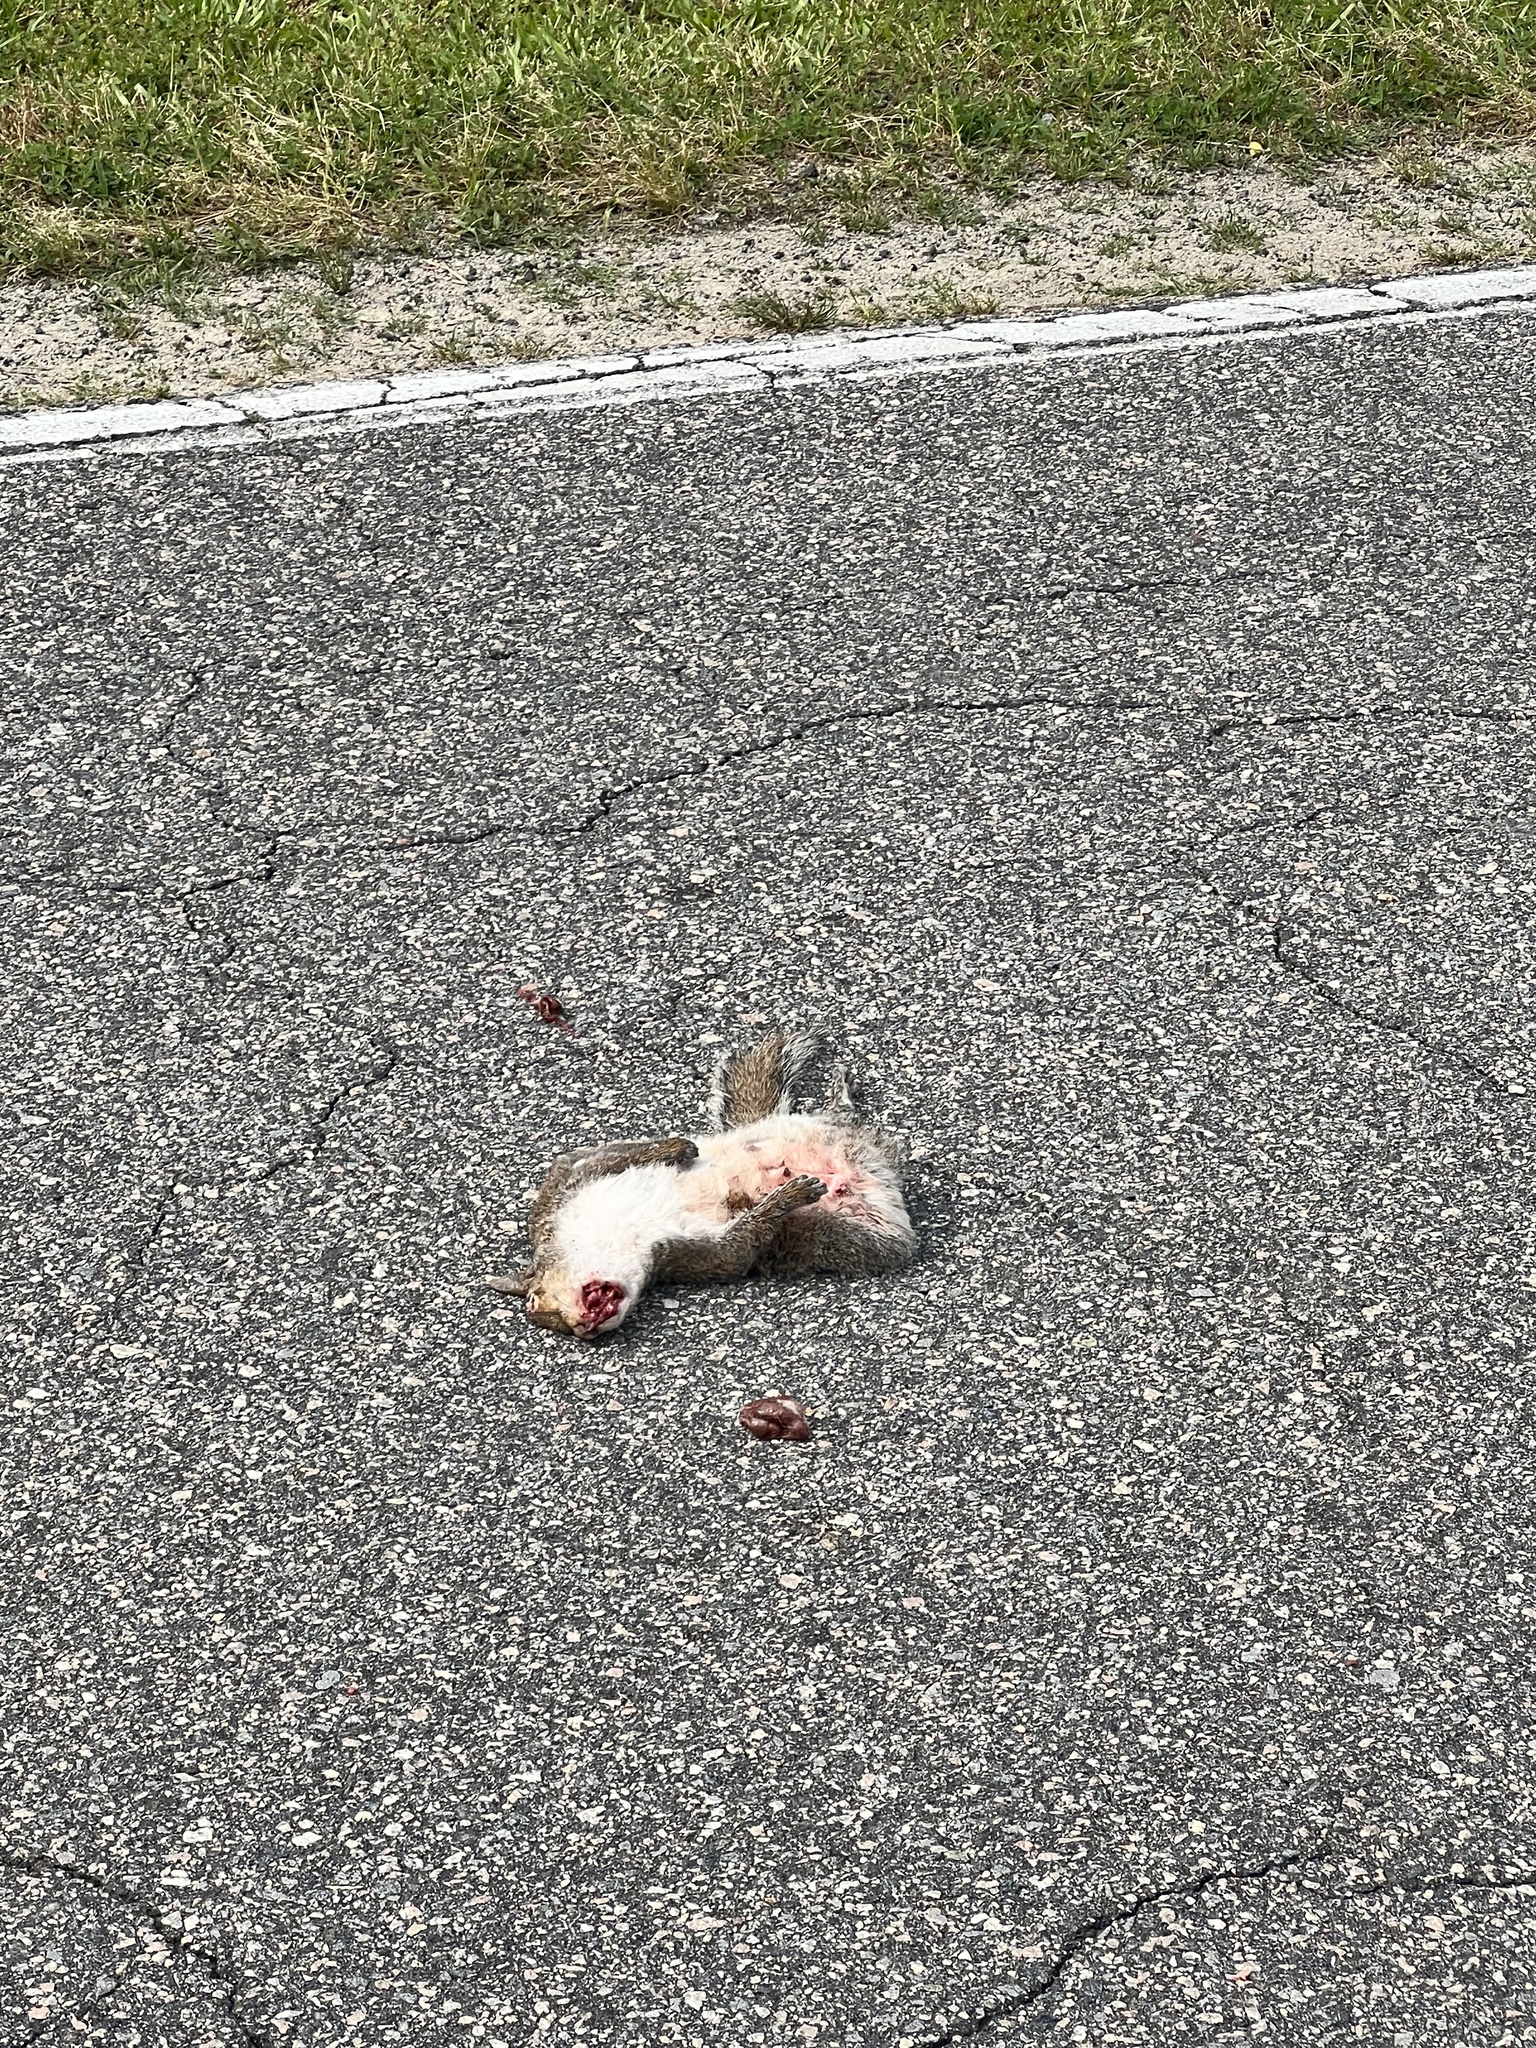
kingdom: Animalia
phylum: Chordata
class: Mammalia
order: Rodentia
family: Sciuridae
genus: Sciurus
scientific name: Sciurus carolinensis
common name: Eastern gray squirrel
